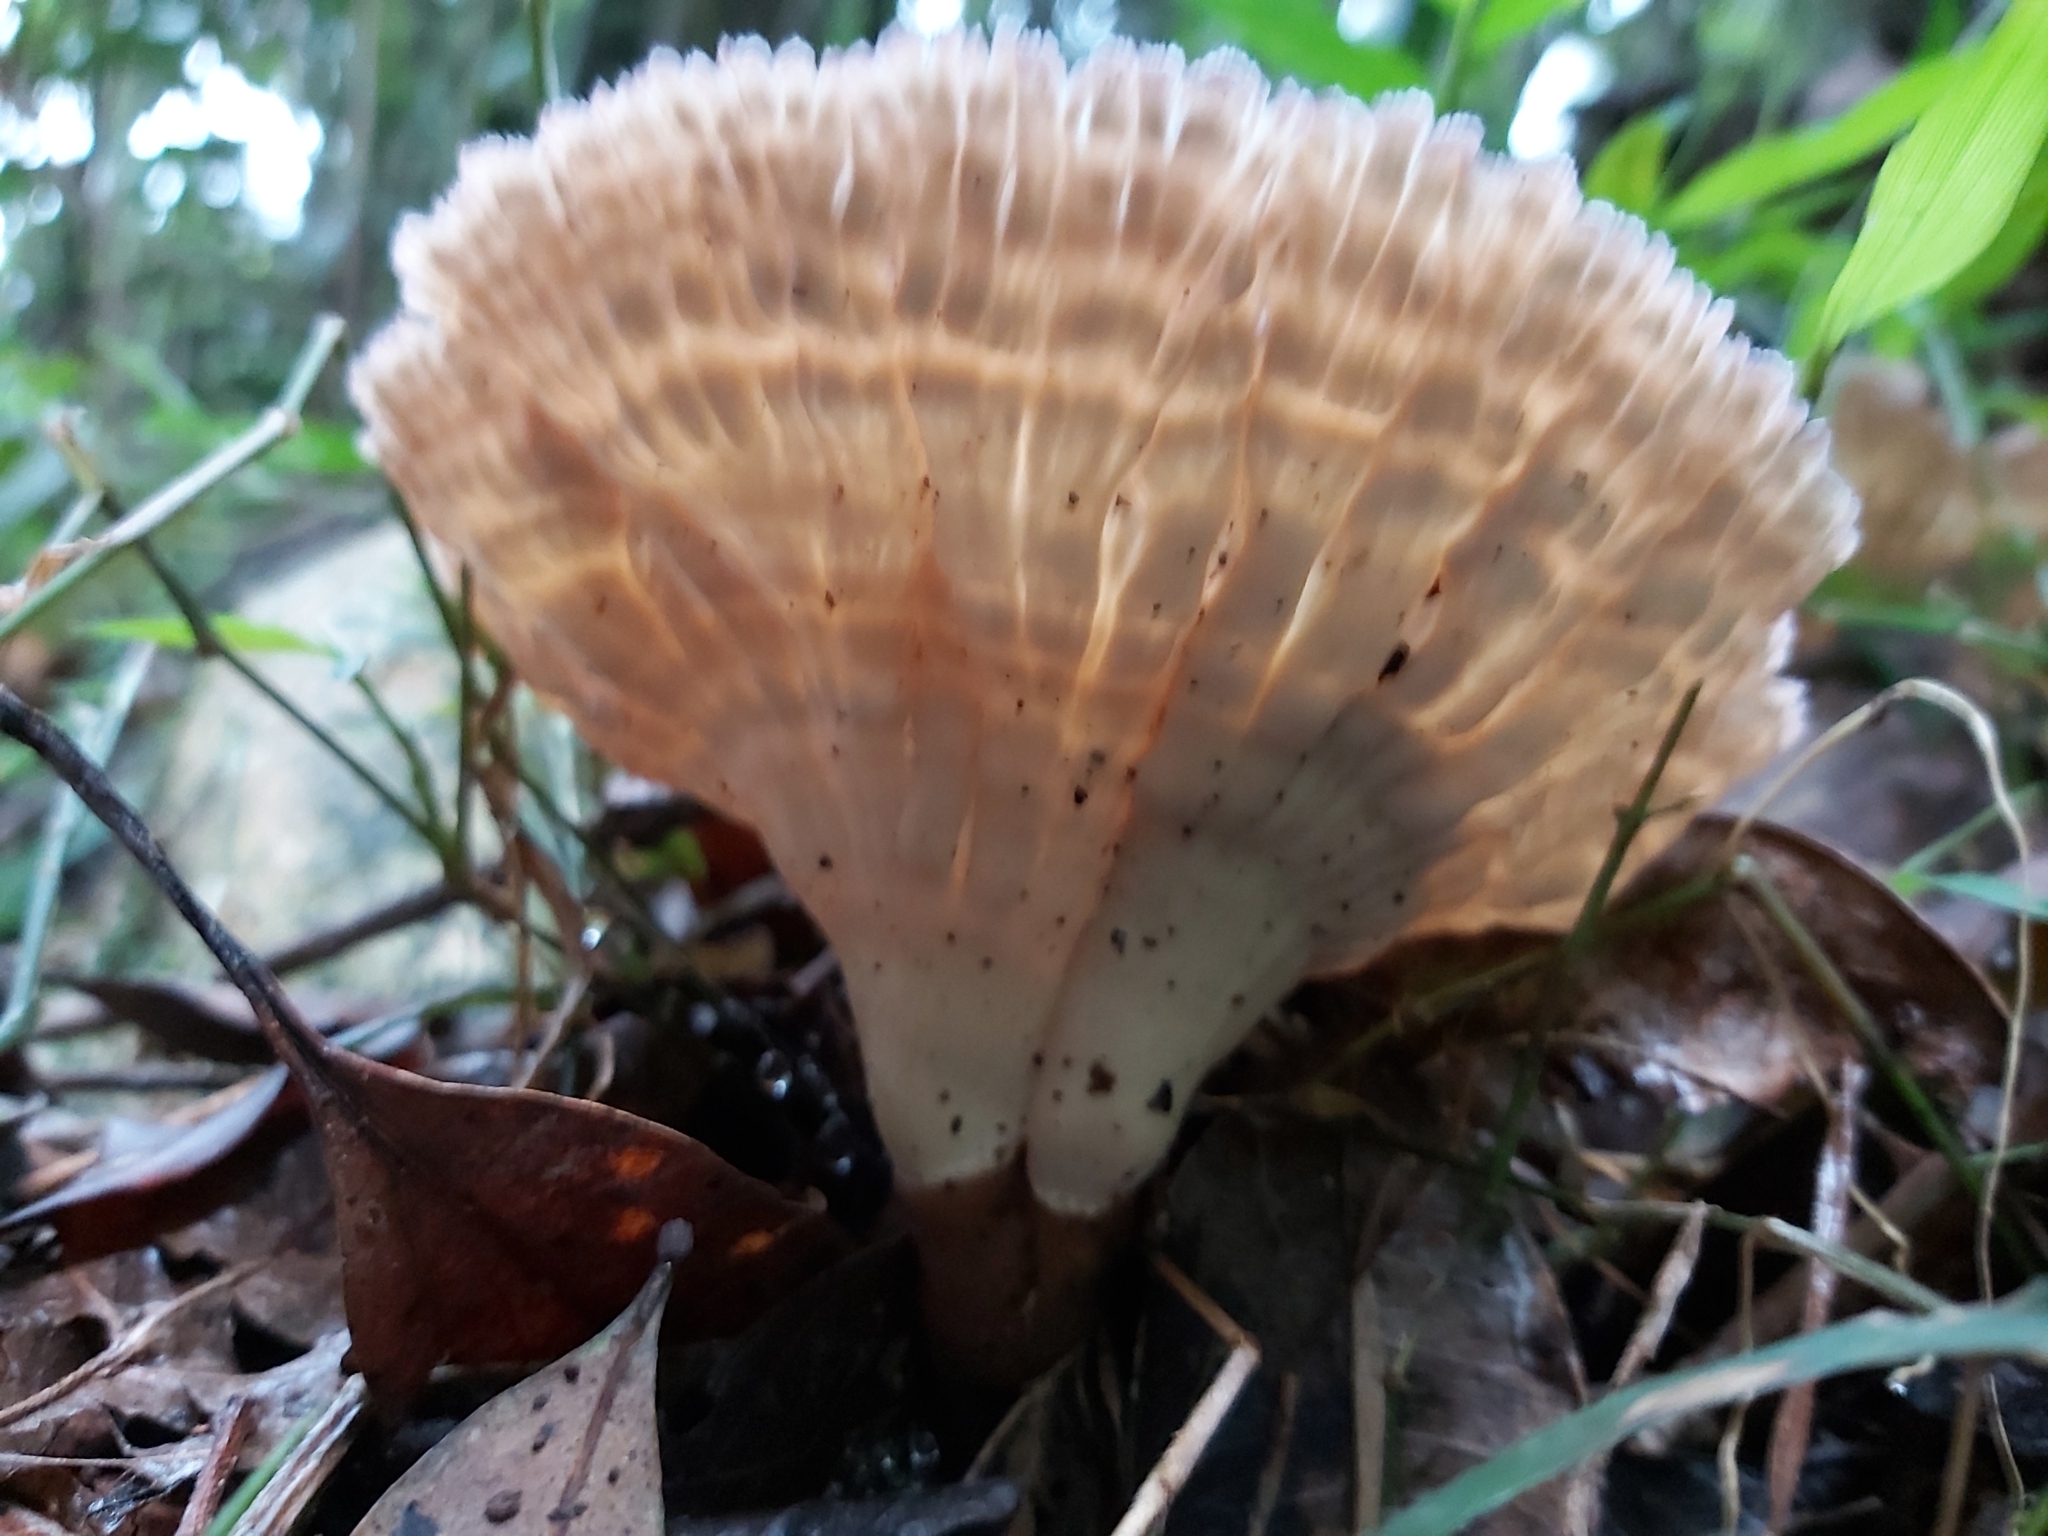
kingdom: Fungi
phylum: Basidiomycota
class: Agaricomycetes
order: Polyporales
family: Panaceae
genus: Cymatoderma
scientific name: Cymatoderma elegans
